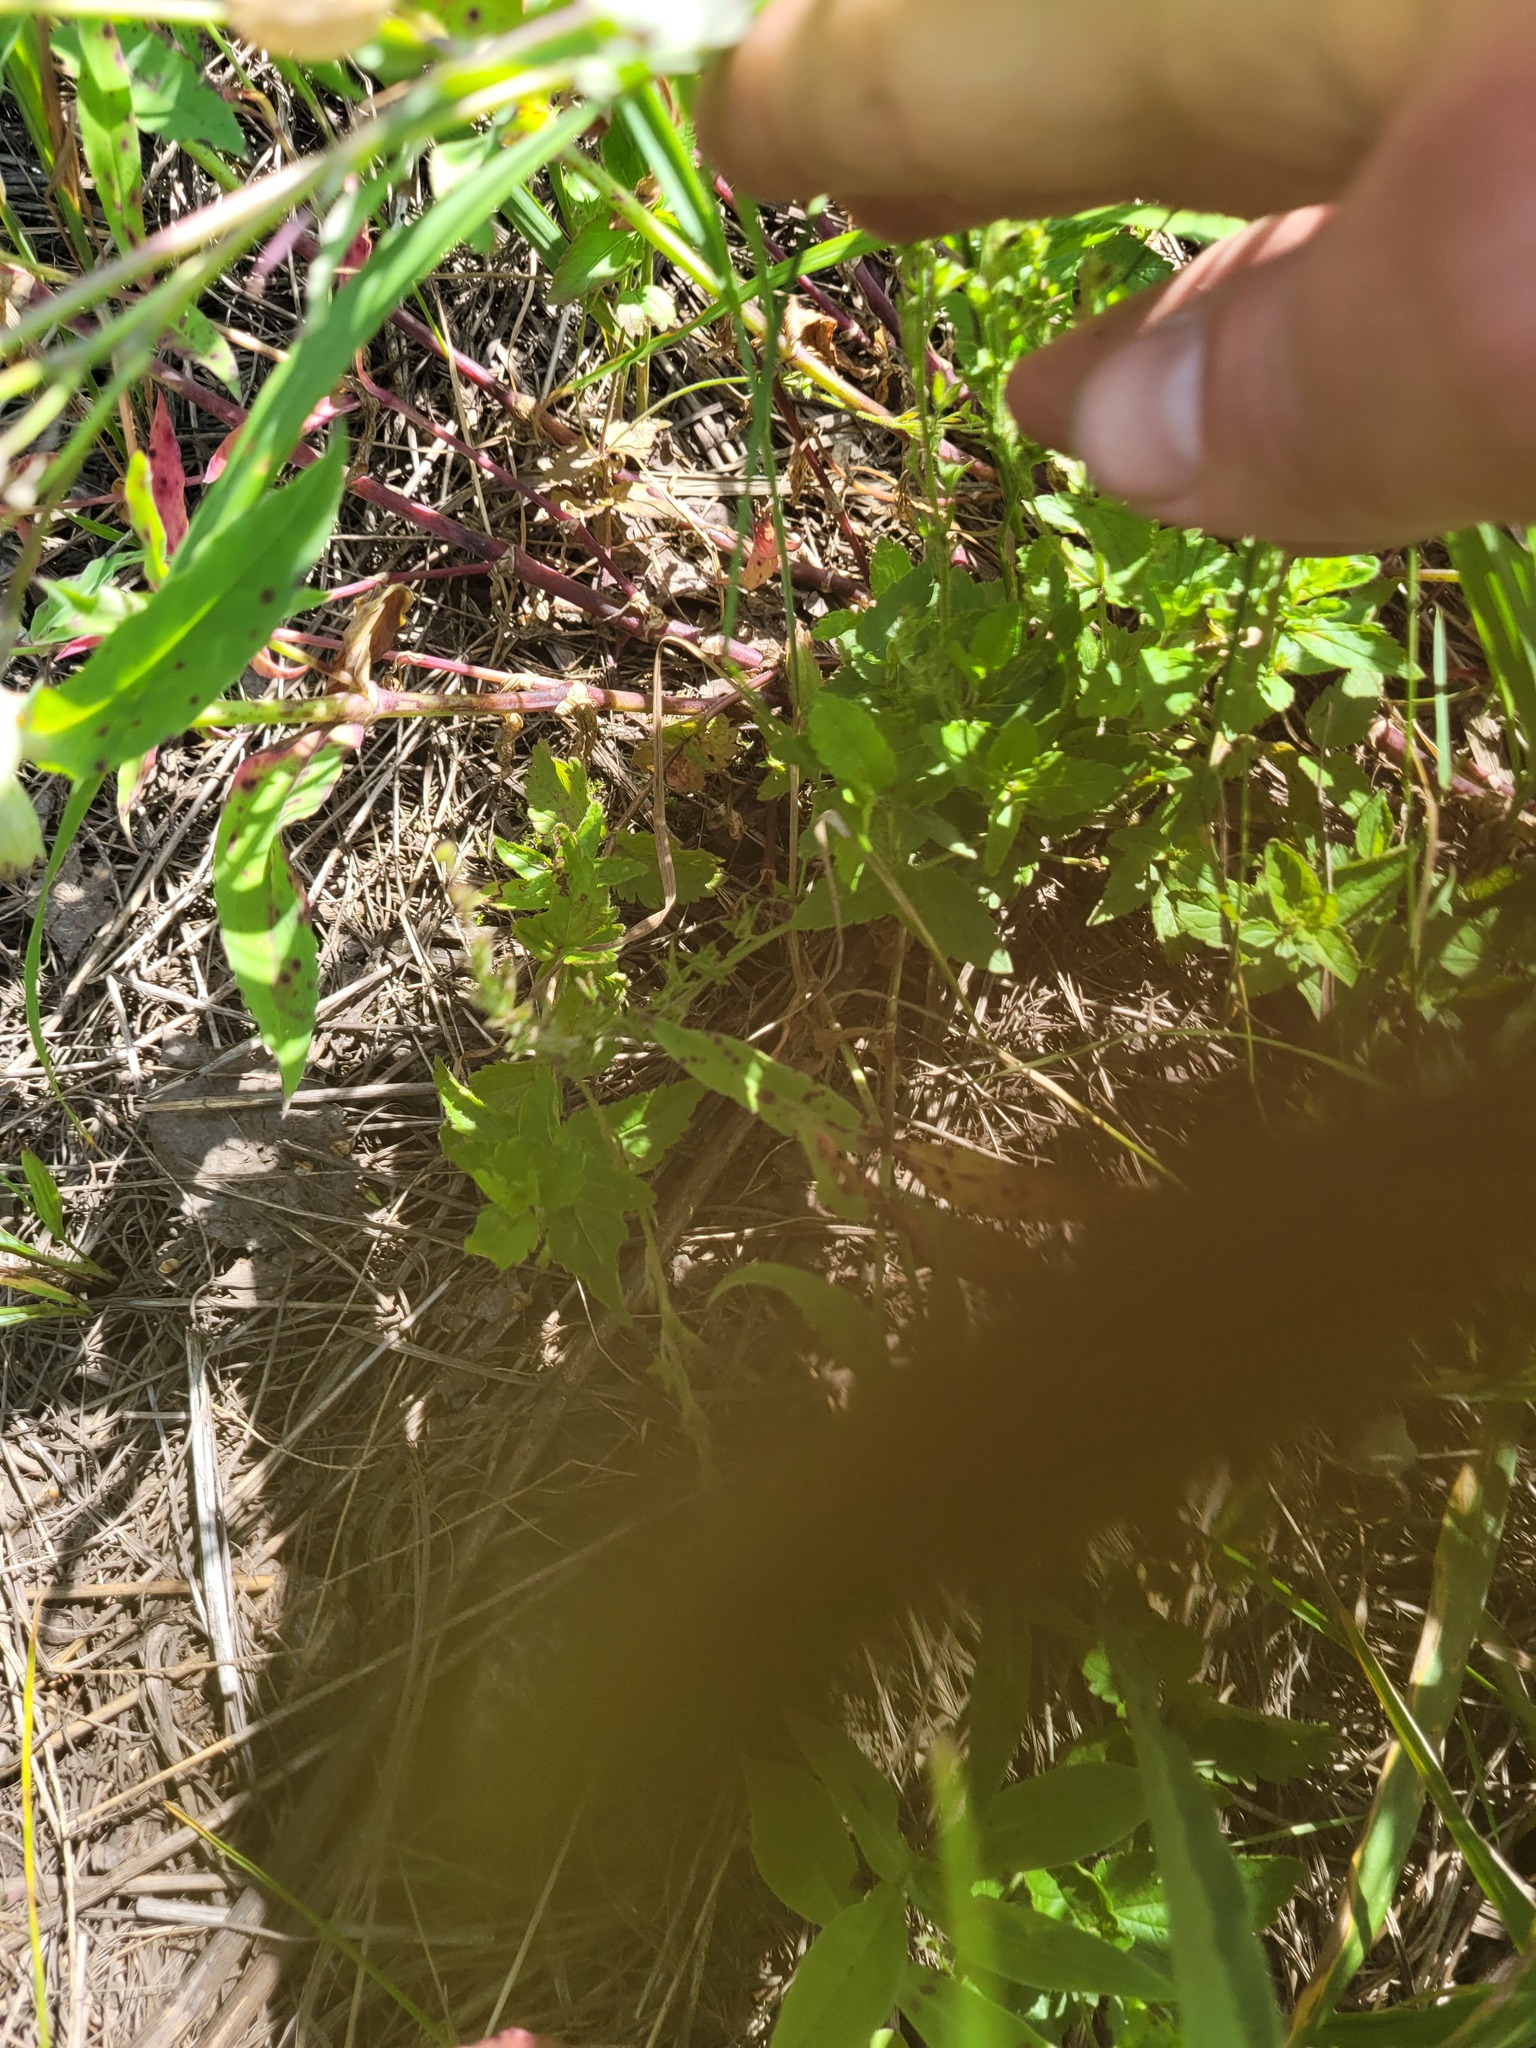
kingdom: Plantae
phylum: Tracheophyta
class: Magnoliopsida
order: Lamiales
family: Plantaginaceae
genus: Veronica
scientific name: Veronica chamaedrys
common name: Germander speedwell
